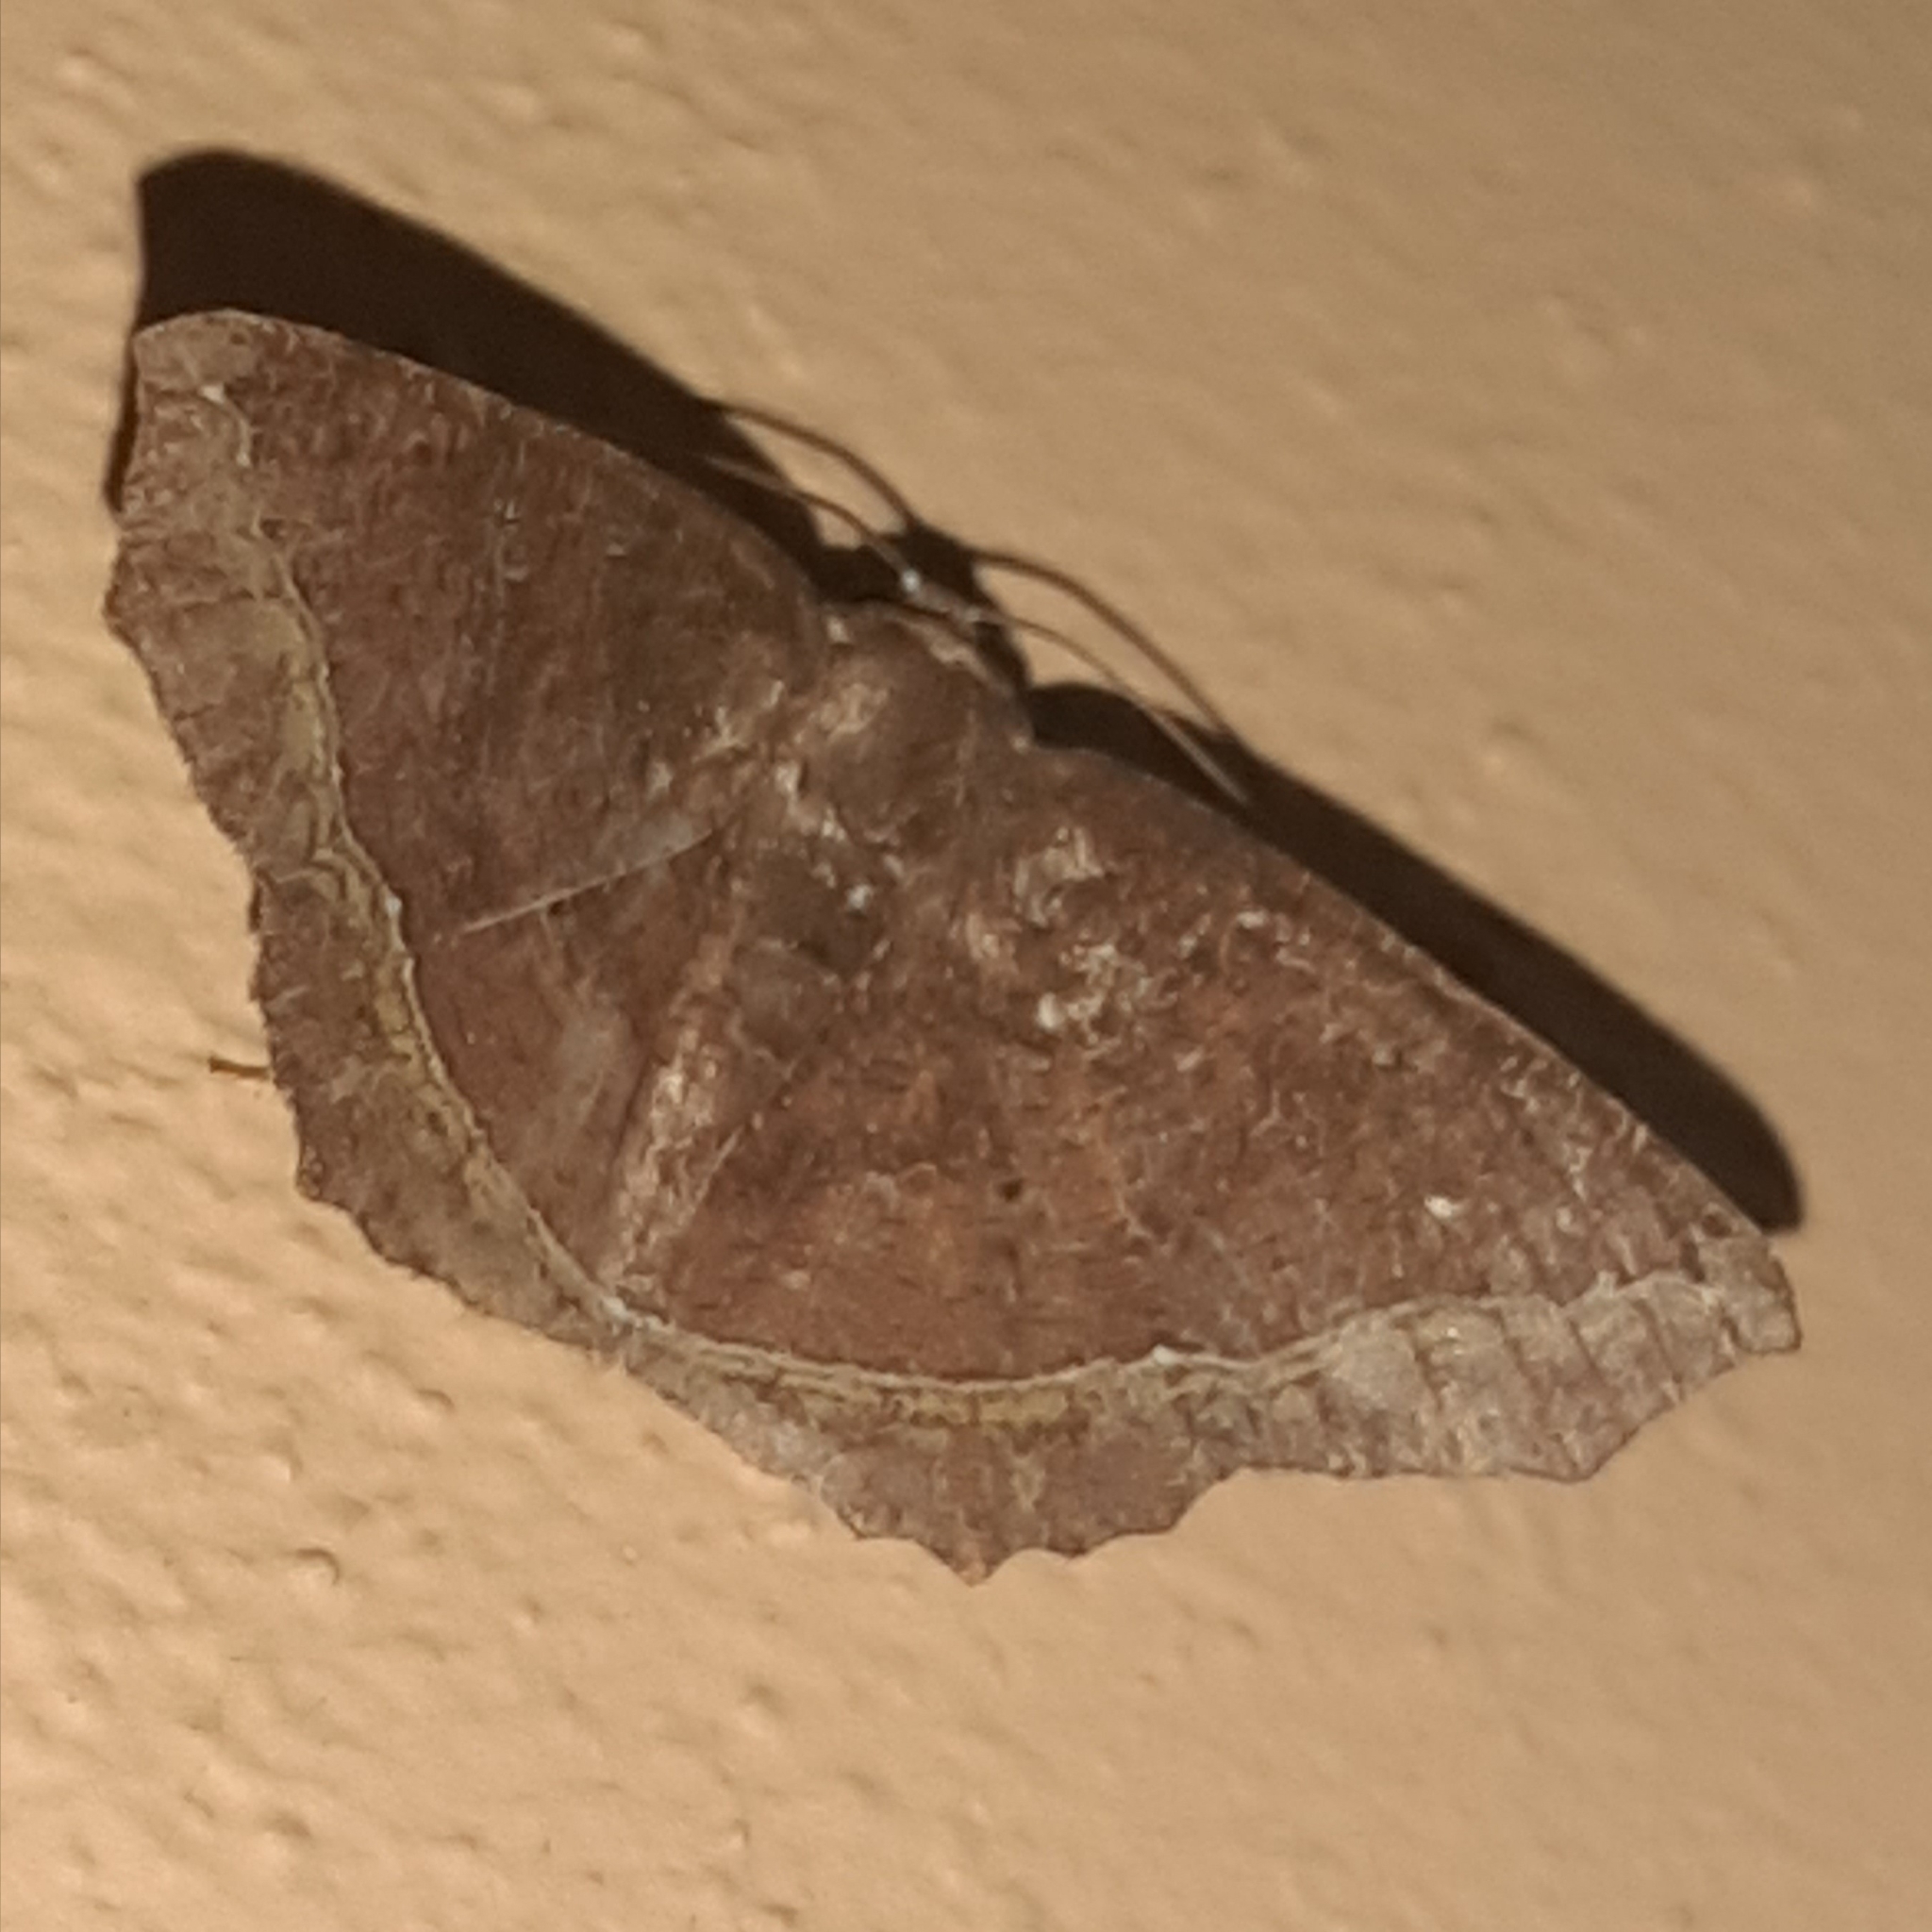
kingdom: Animalia
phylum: Arthropoda
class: Insecta
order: Lepidoptera
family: Geometridae
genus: Synnomos
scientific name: Synnomos firmamentaria
